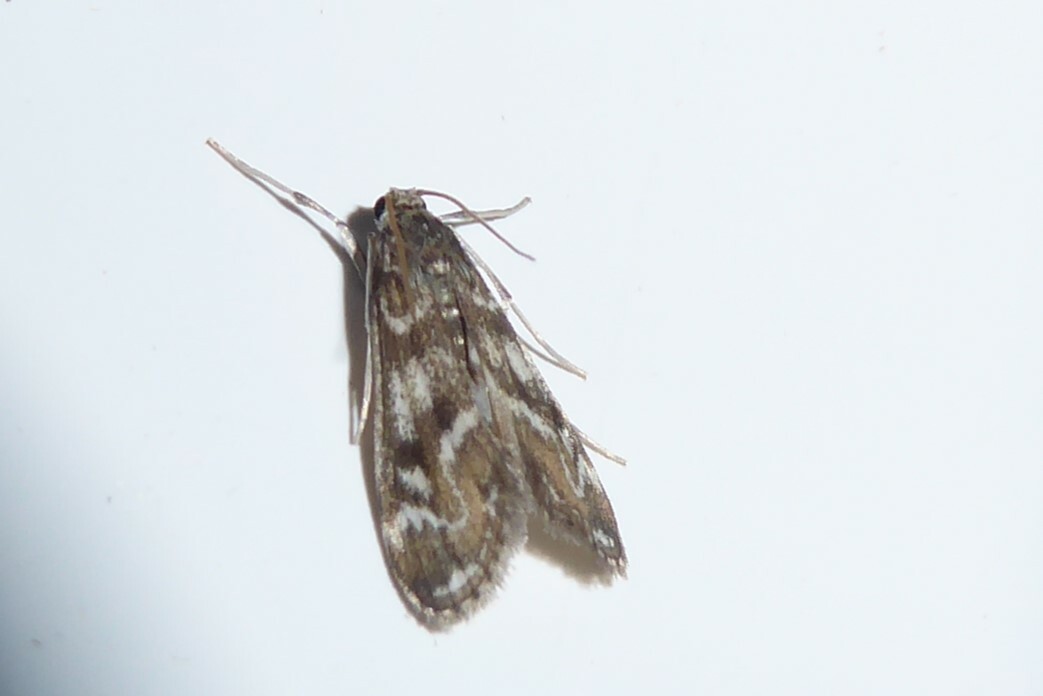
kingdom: Animalia
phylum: Arthropoda
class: Insecta
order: Lepidoptera
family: Crambidae
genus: Hygraula
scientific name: Hygraula nitens
